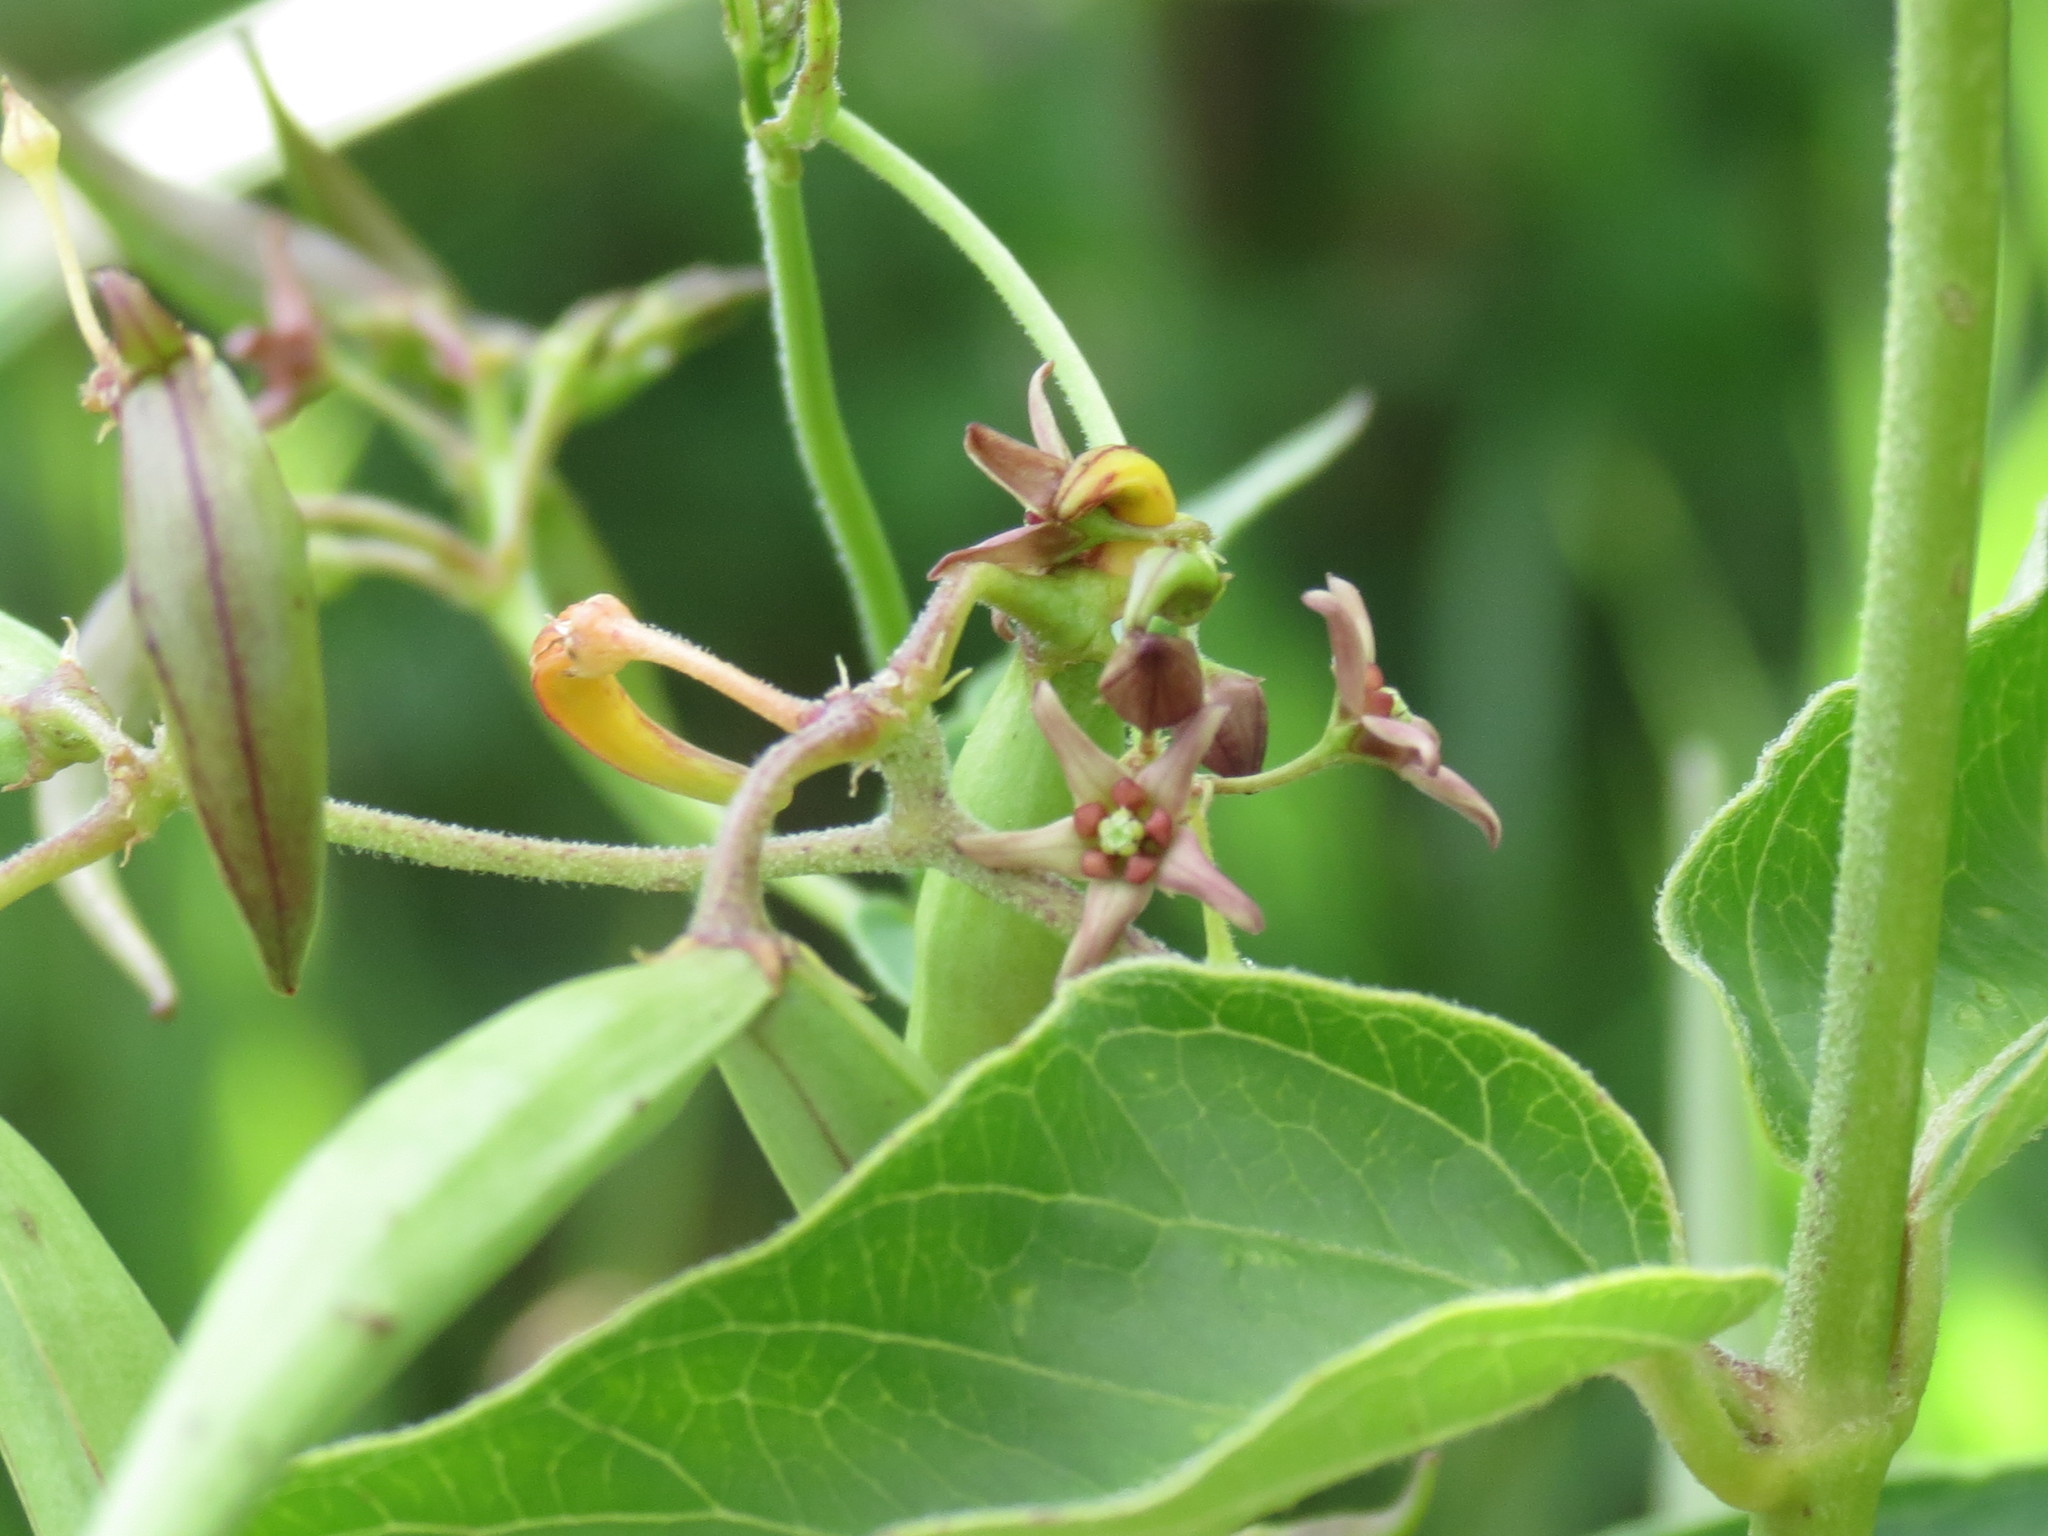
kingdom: Plantae
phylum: Tracheophyta
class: Magnoliopsida
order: Gentianales
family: Apocynaceae
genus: Vincetoxicum
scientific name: Vincetoxicum rossicum
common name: Dog-strangling vine
